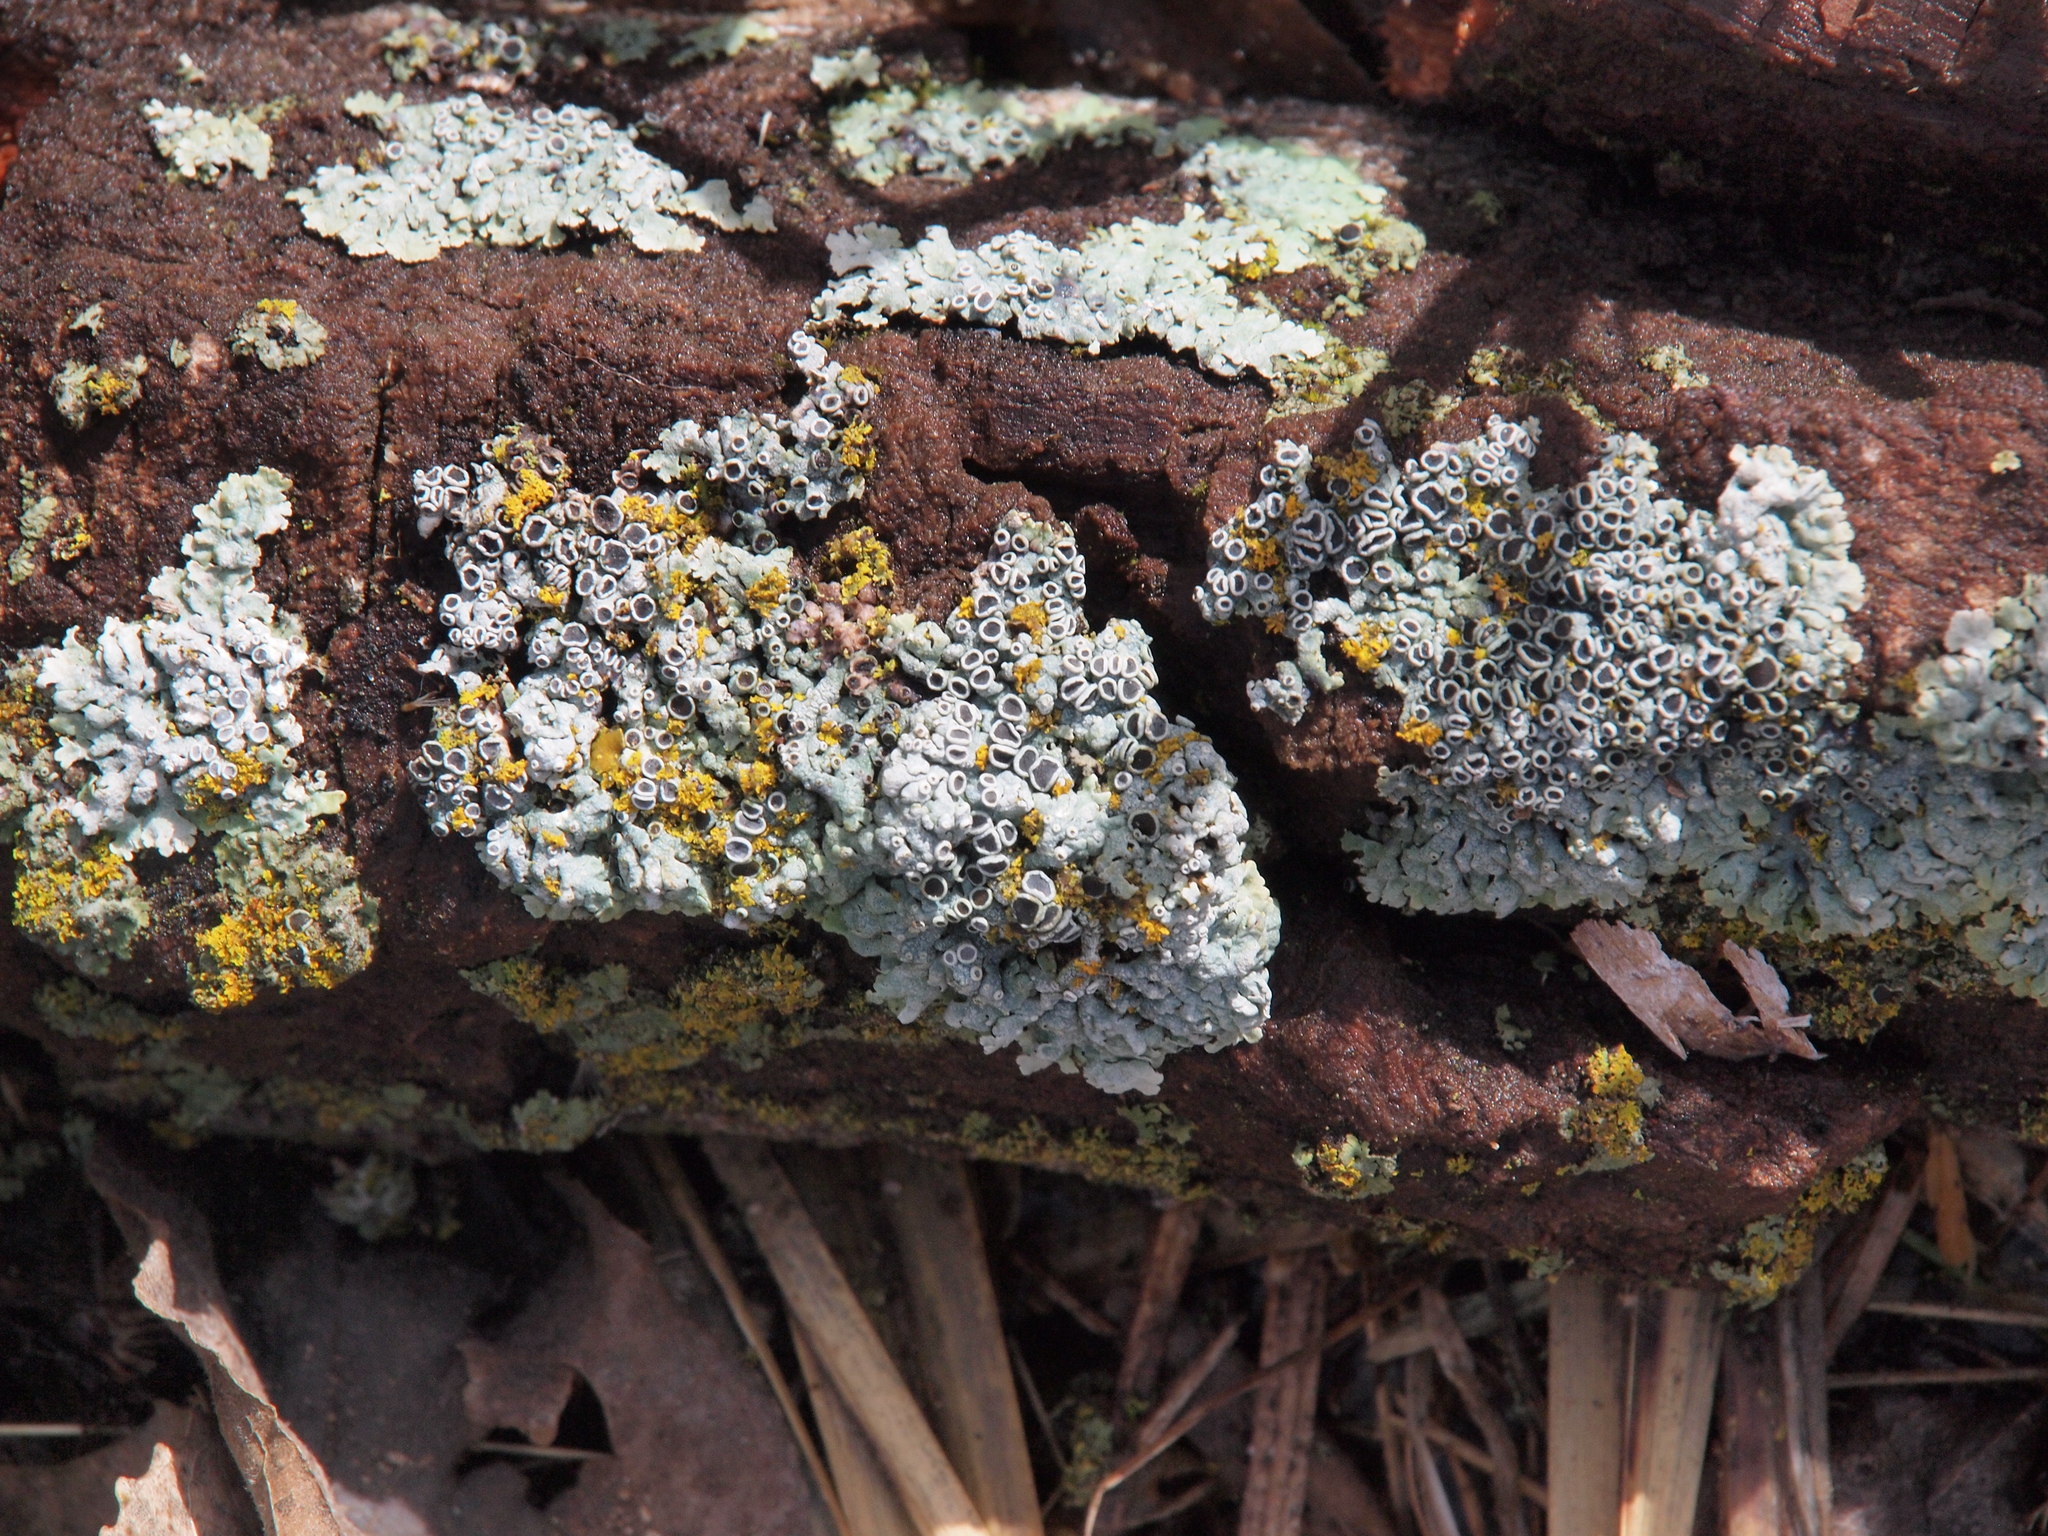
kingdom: Fungi
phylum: Ascomycota
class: Lecanoromycetes
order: Caliciales
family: Physciaceae
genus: Physcia
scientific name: Physcia millegrana
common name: Rosette lichen
